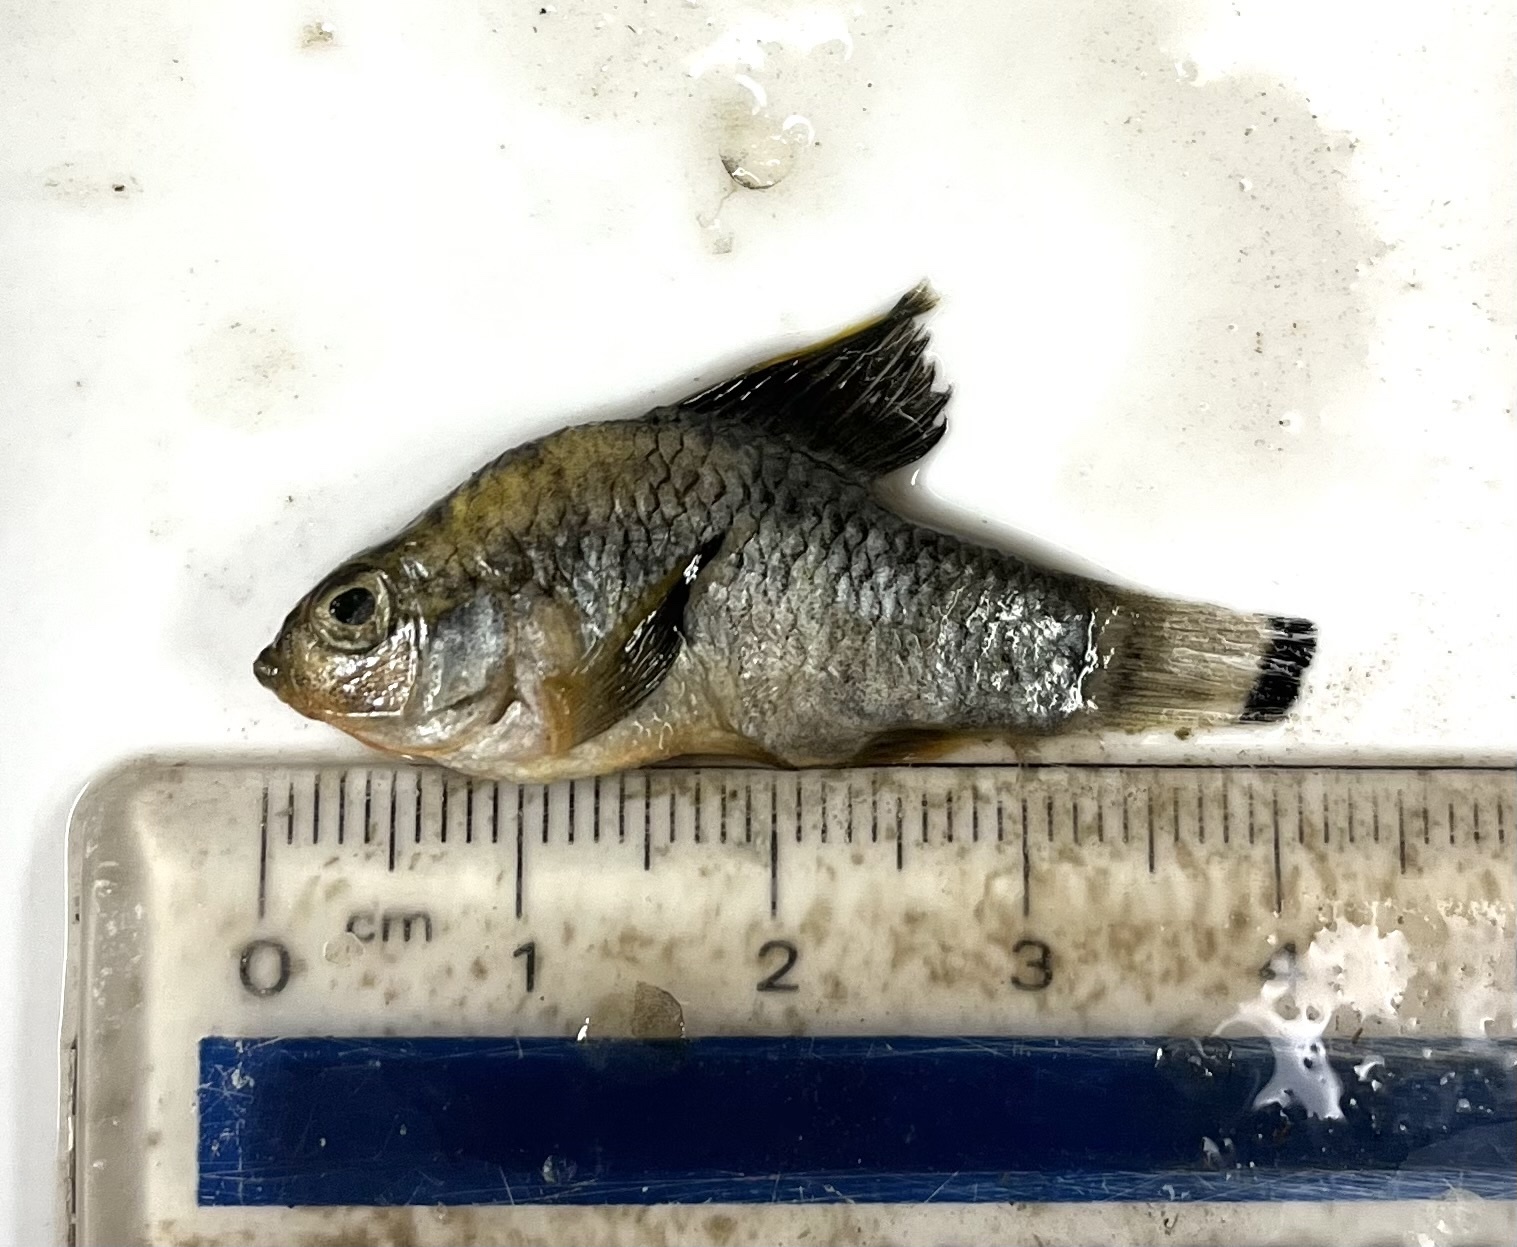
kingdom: Animalia
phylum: Chordata
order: Cyprinodontiformes
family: Cyprinodontidae
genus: Cyprinodon
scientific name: Cyprinodon variegatus
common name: Sheepshead minnow
